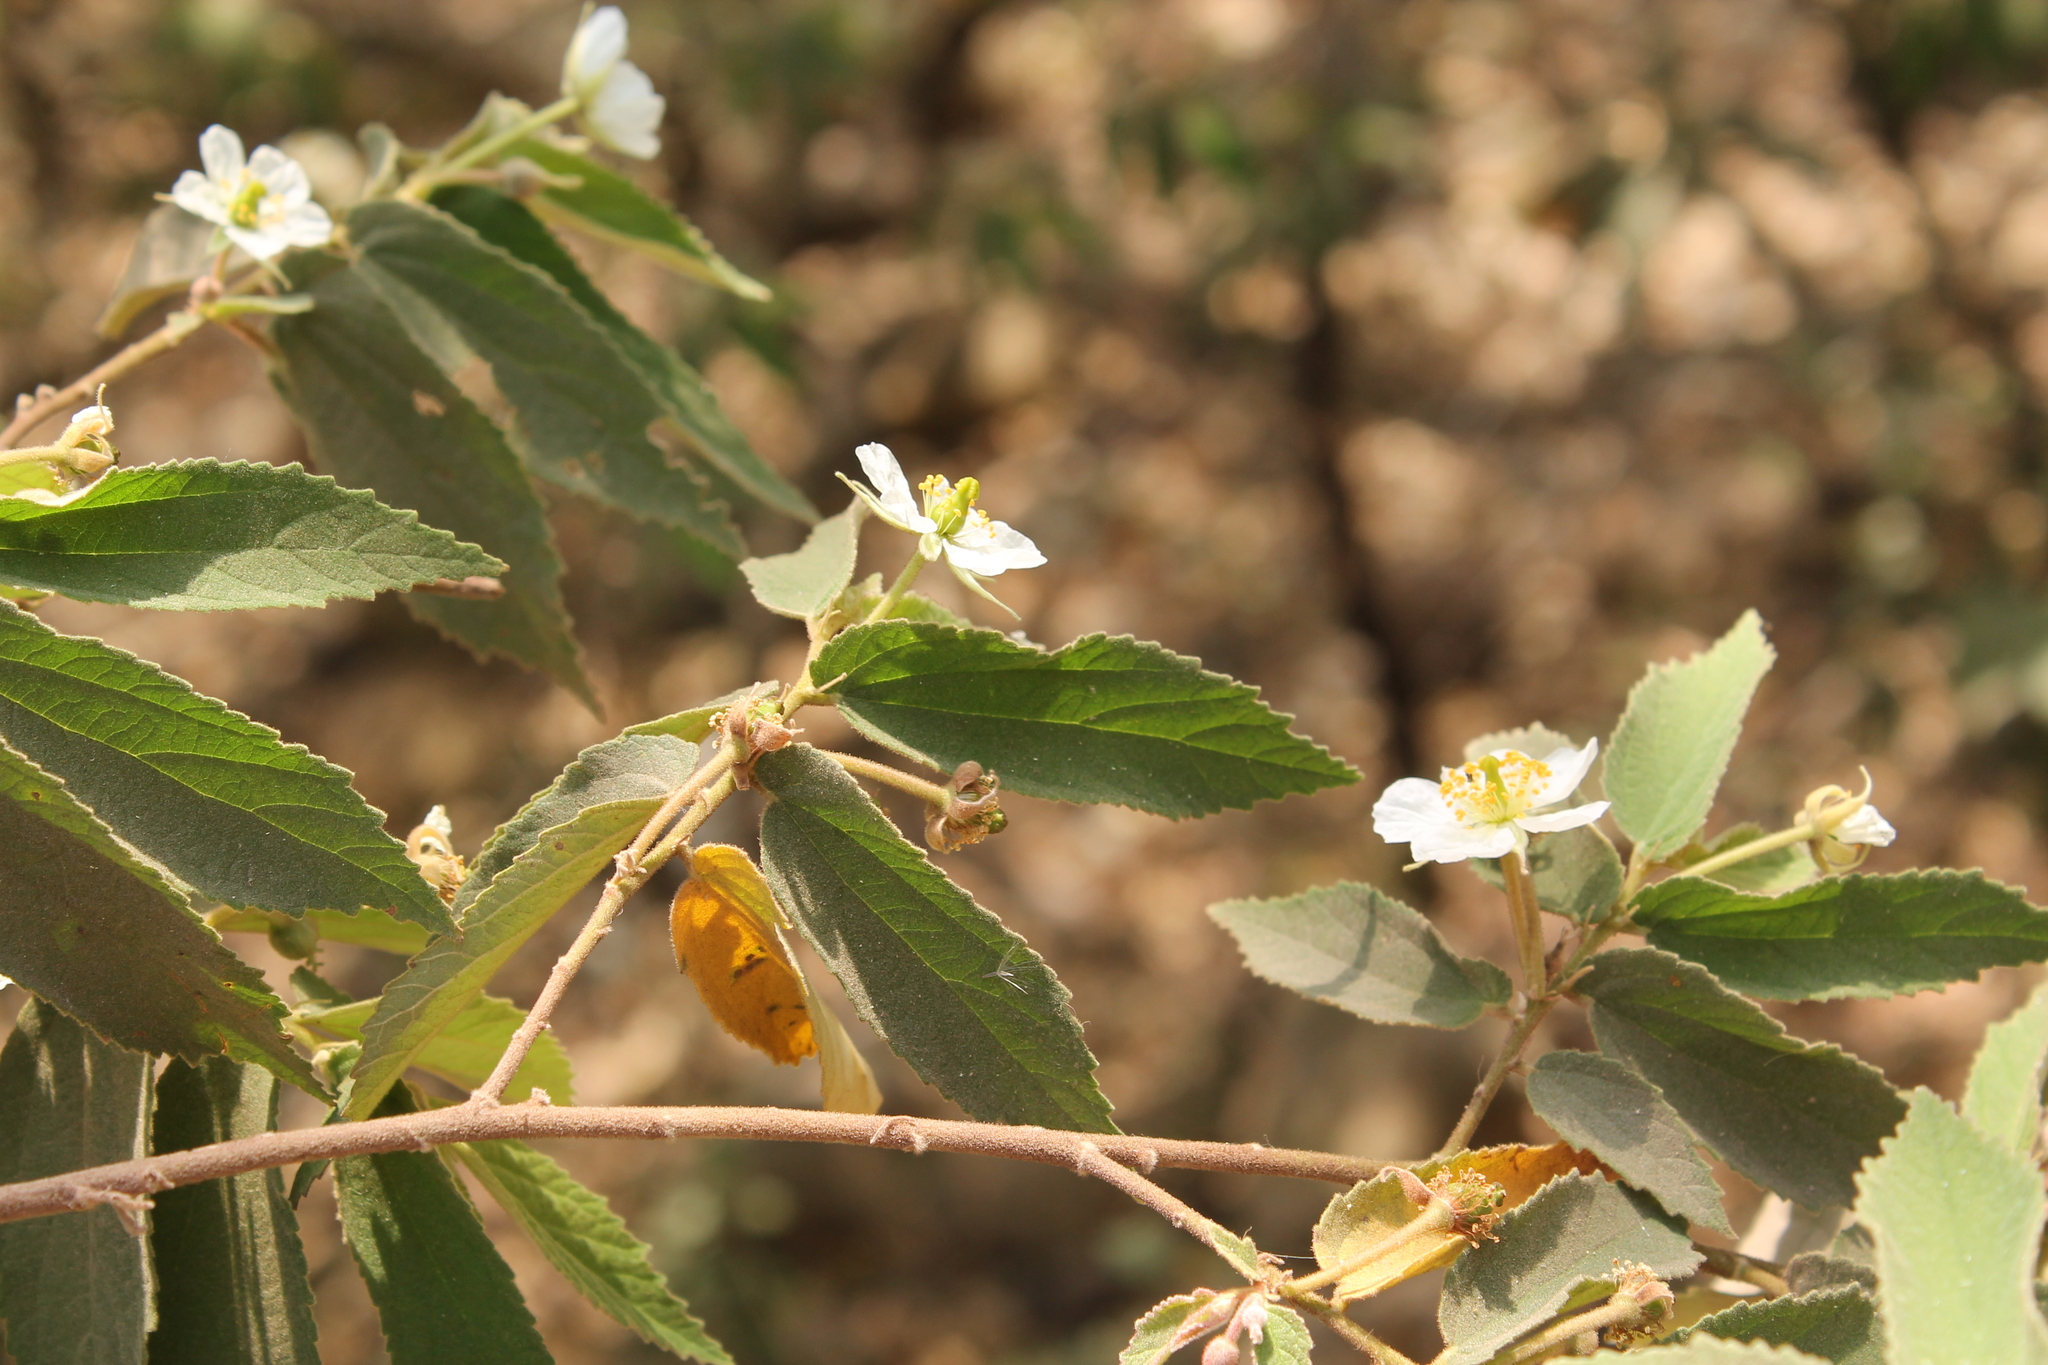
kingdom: Plantae
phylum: Tracheophyta
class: Magnoliopsida
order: Malvales
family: Muntingiaceae
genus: Muntingia
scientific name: Muntingia calabura
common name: Strawberrytree
